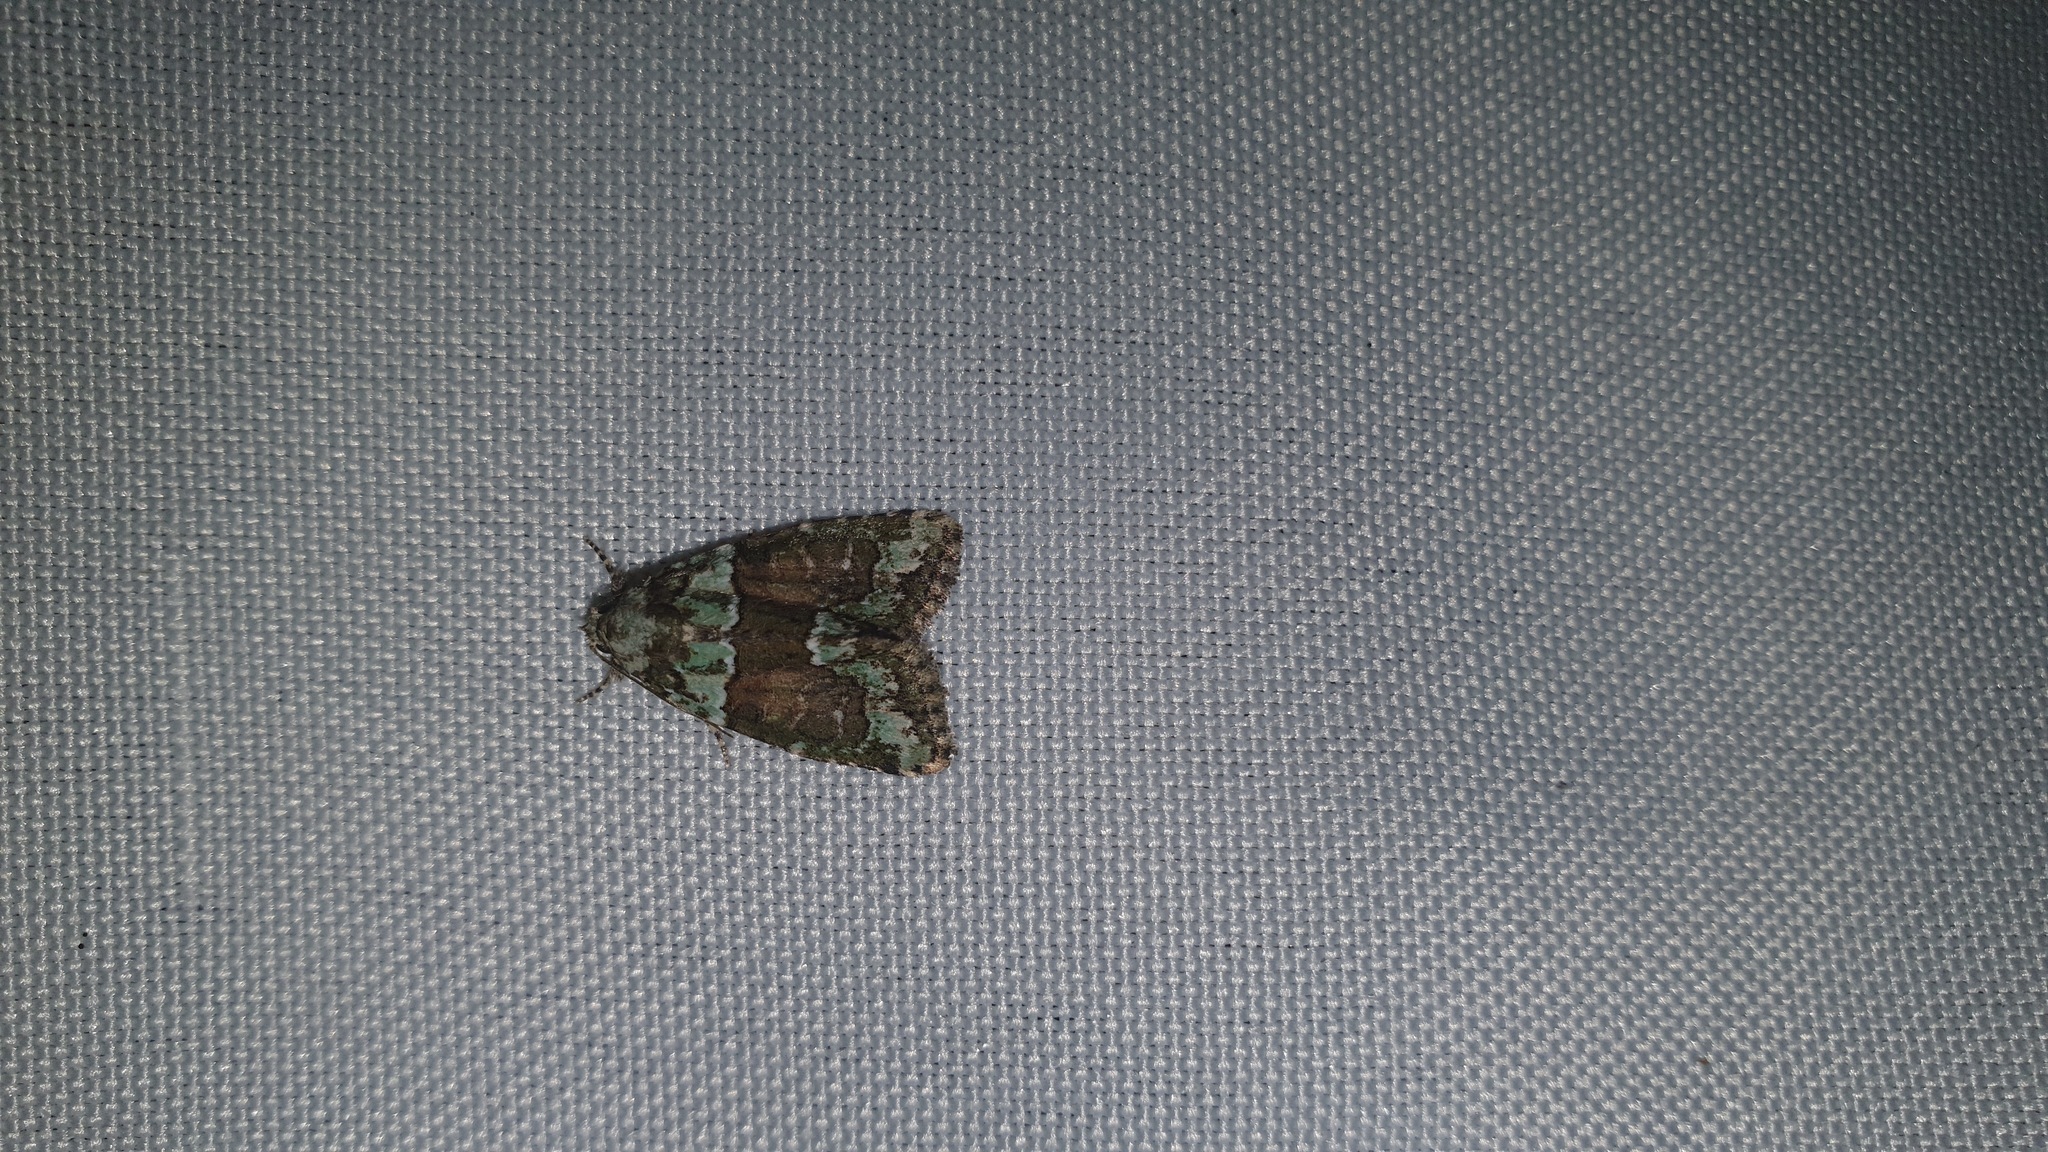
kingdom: Animalia
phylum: Arthropoda
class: Insecta
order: Lepidoptera
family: Noctuidae
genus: Cryphia
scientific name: Cryphia algae
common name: Tree-lichen beauty
